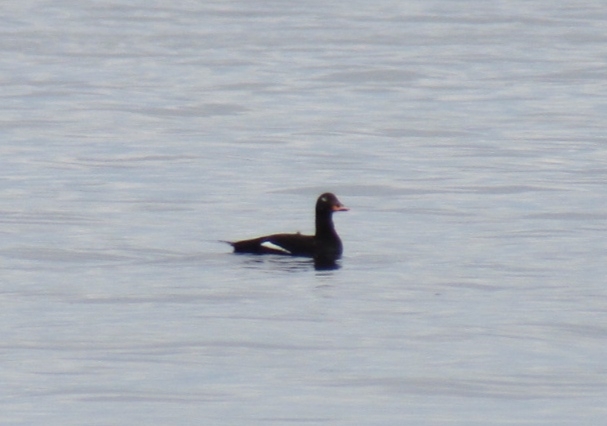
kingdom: Animalia
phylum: Chordata
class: Aves
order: Anseriformes
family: Anatidae
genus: Melanitta
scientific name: Melanitta fusca
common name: Velvet scoter
